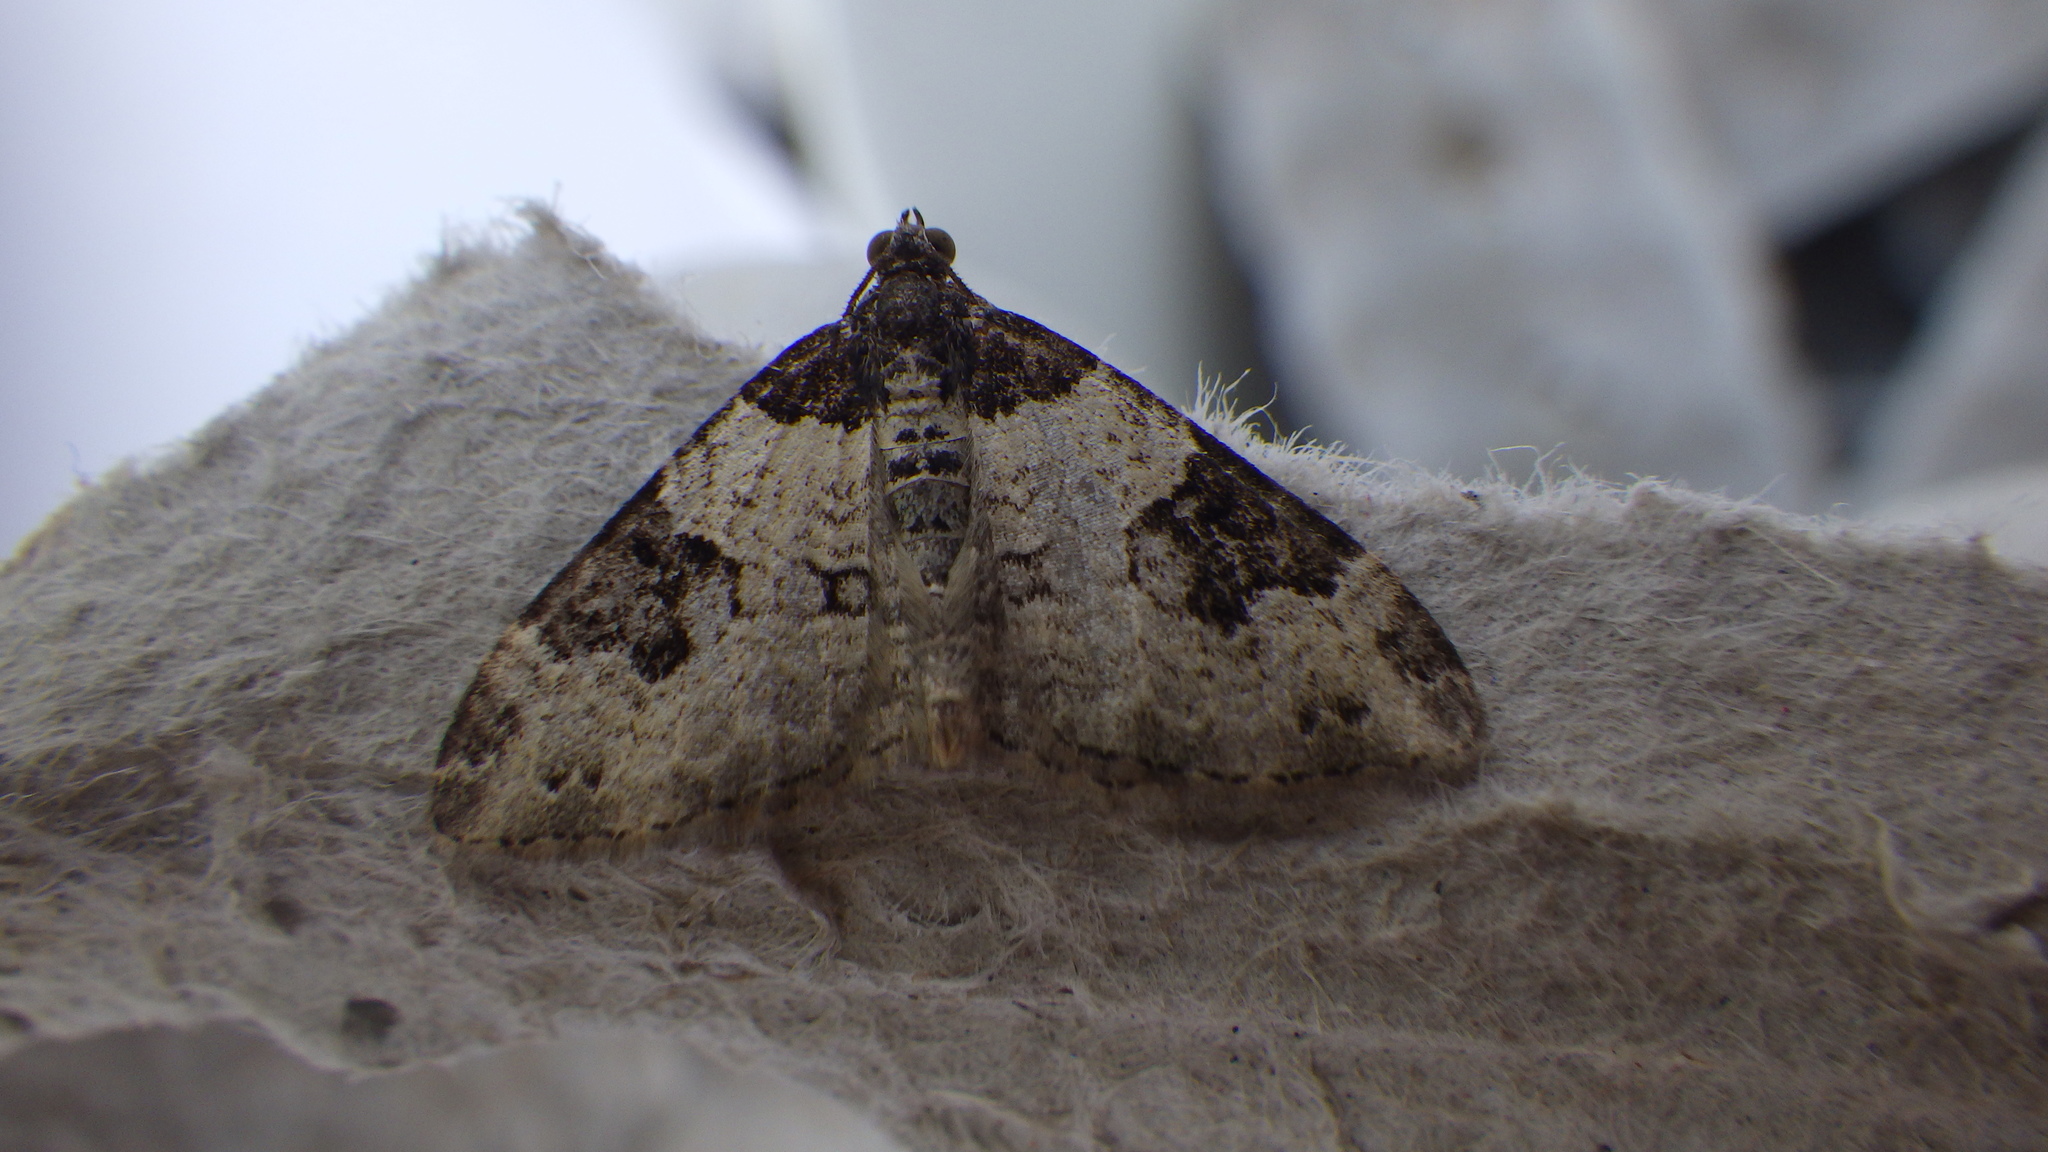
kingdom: Animalia
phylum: Arthropoda
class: Insecta
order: Lepidoptera
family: Geometridae
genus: Xanthorhoe
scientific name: Xanthorhoe fluctuata
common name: Garden carpet
